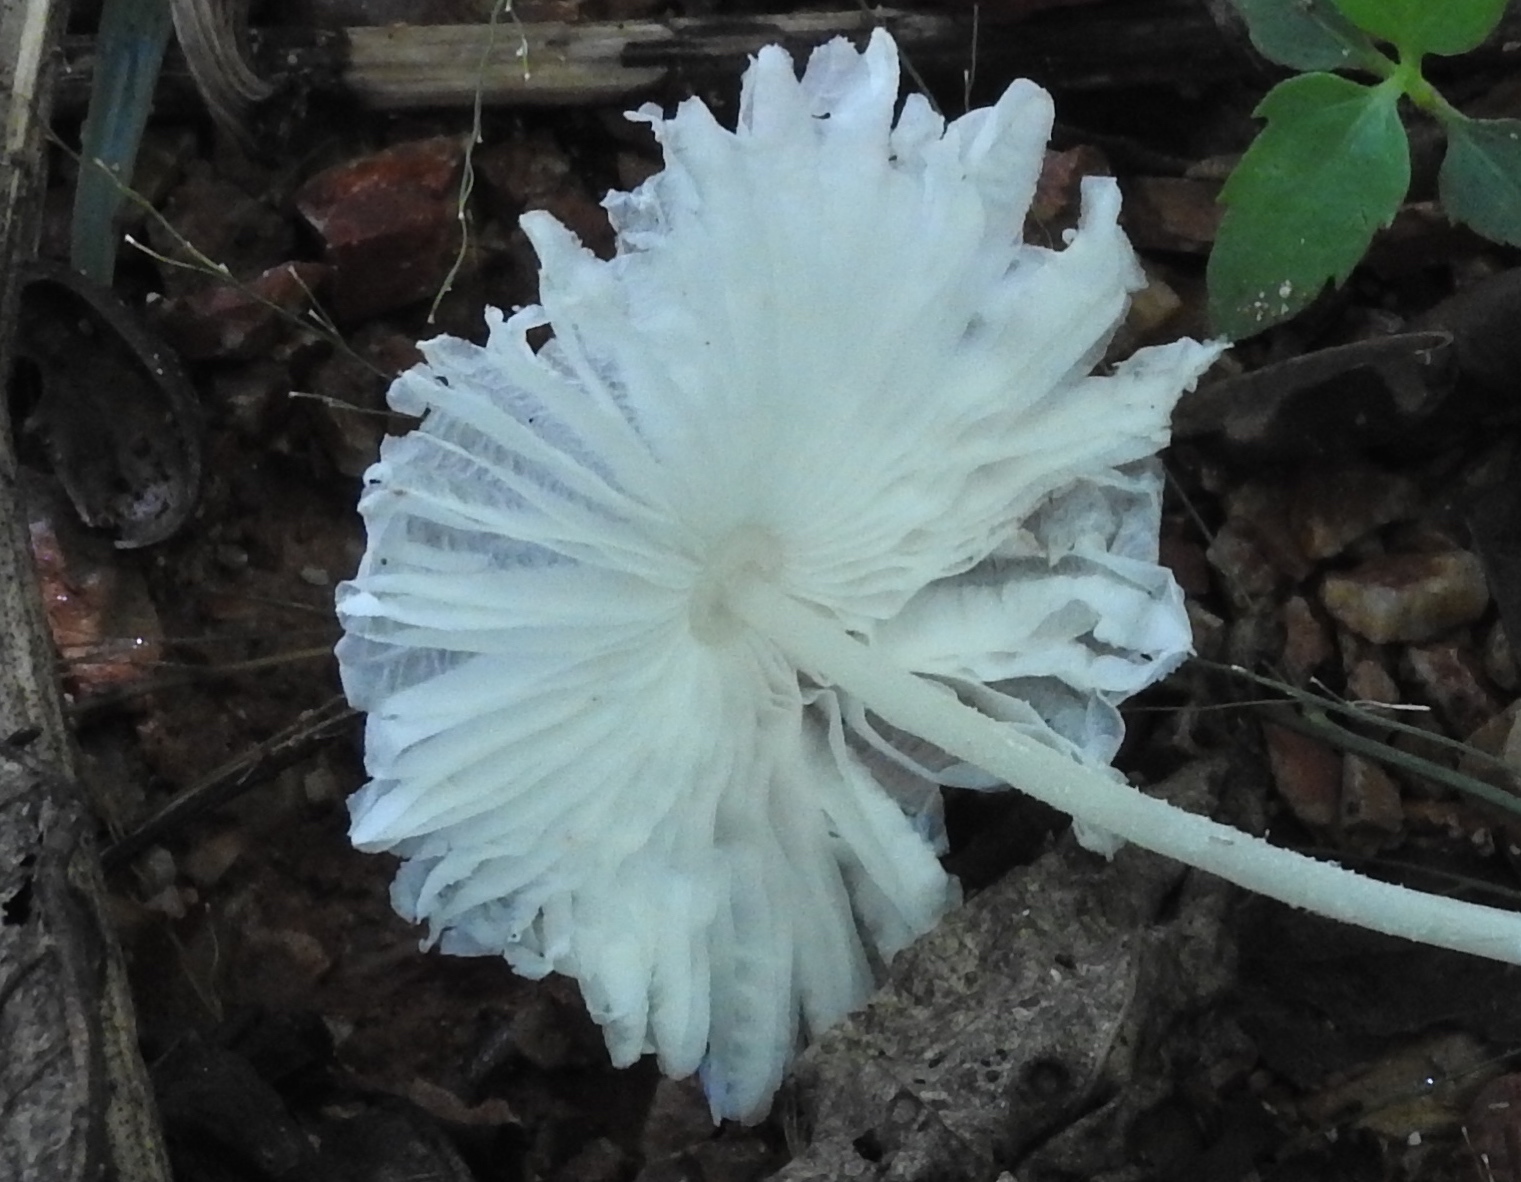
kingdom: Fungi
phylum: Basidiomycota
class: Agaricomycetes
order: Agaricales
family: Agaricaceae
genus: Leucocoprinus
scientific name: Leucocoprinus
